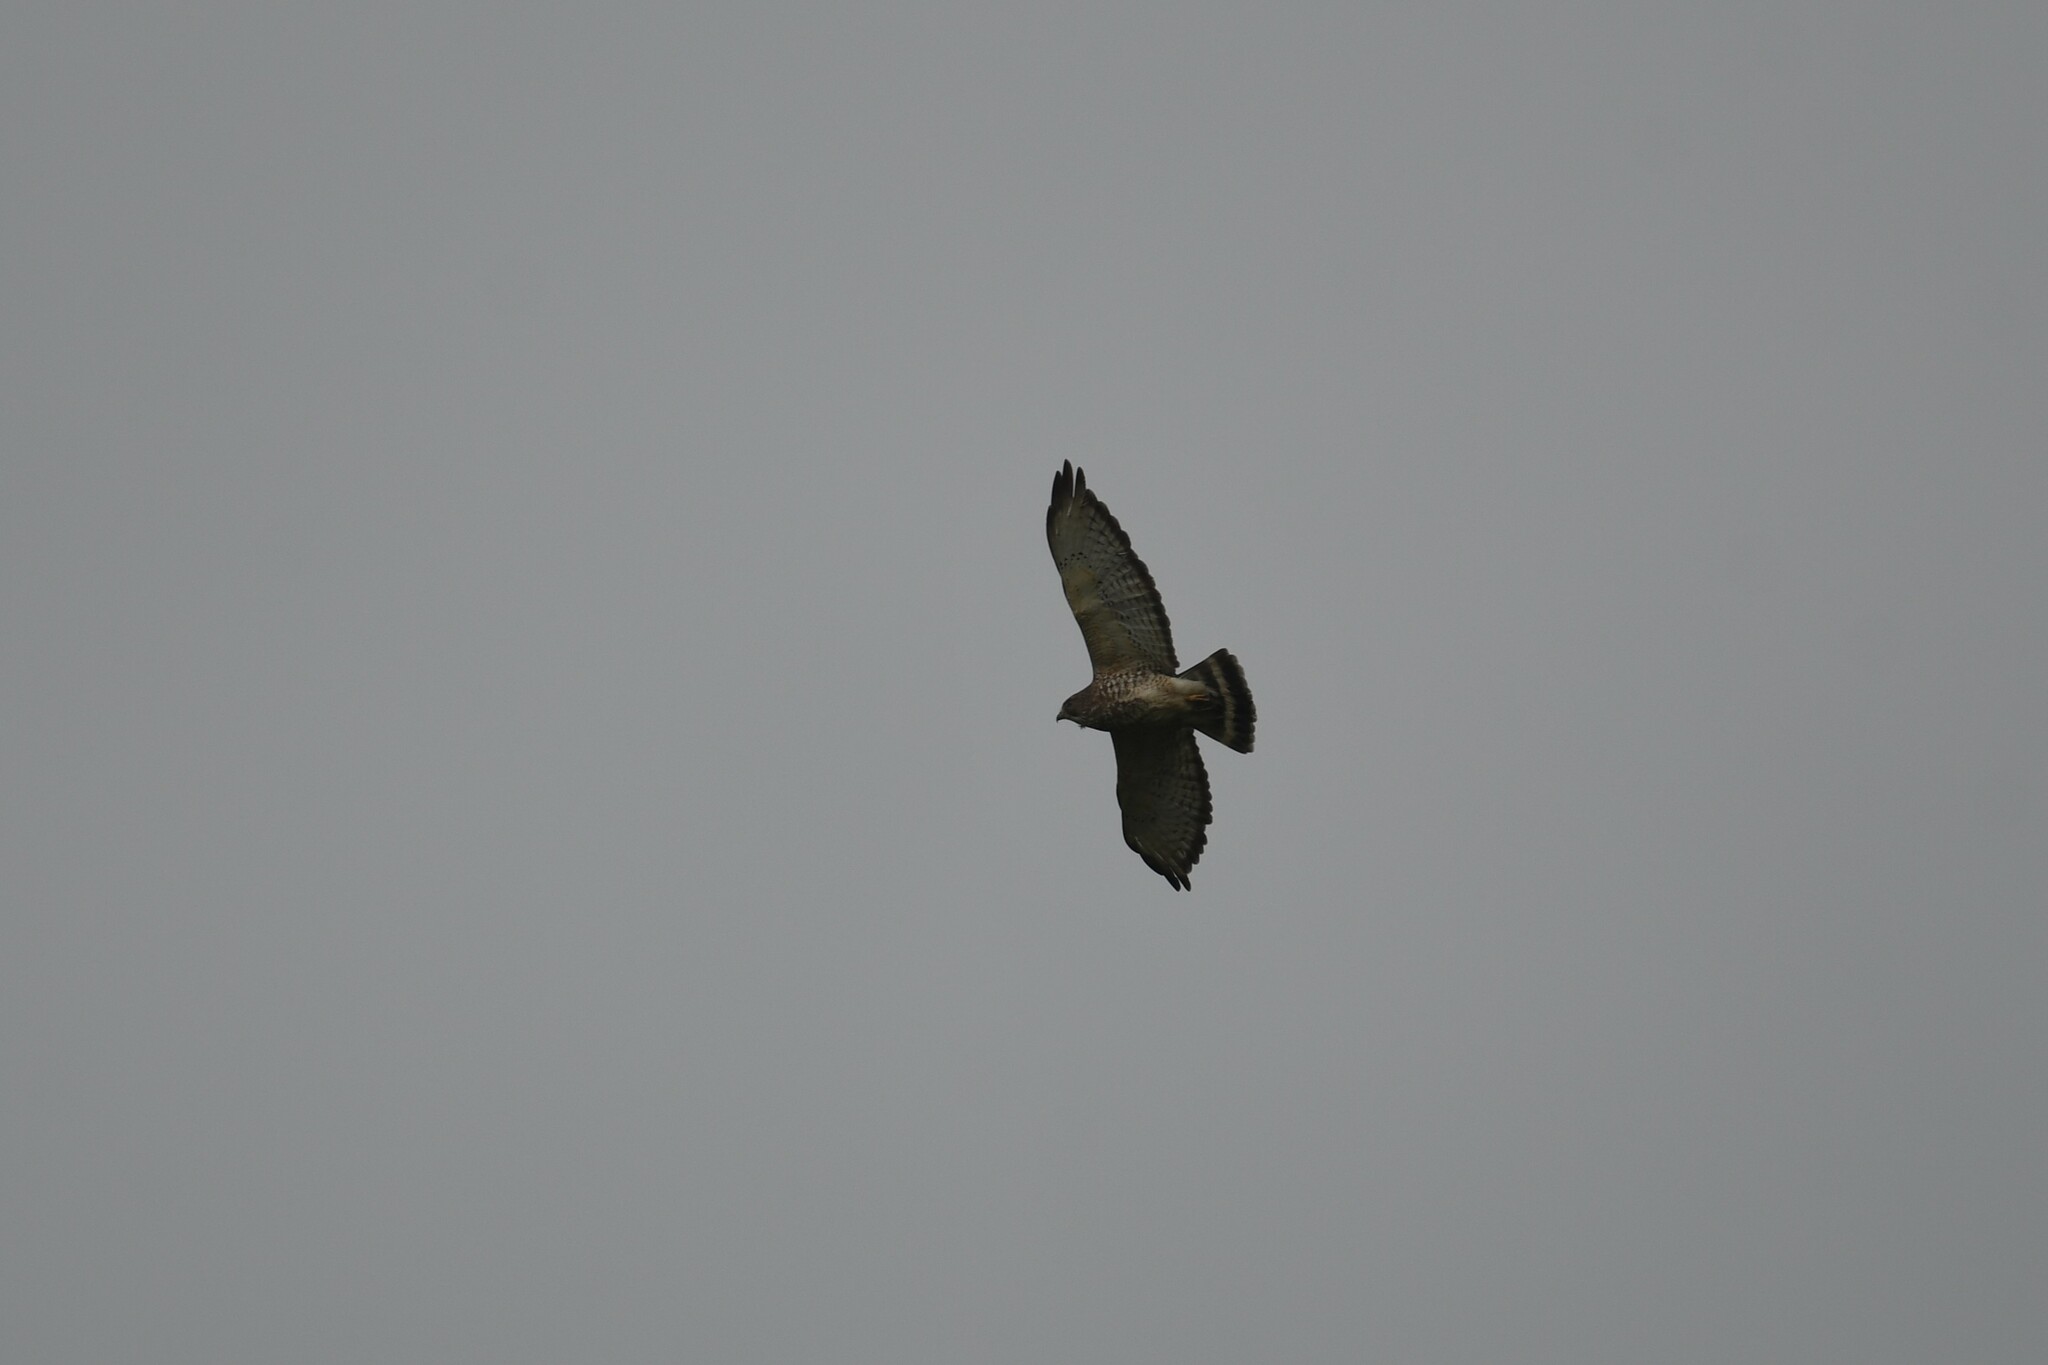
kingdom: Animalia
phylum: Chordata
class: Aves
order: Accipitriformes
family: Accipitridae
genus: Buteo
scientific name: Buteo platypterus
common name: Broad-winged hawk
